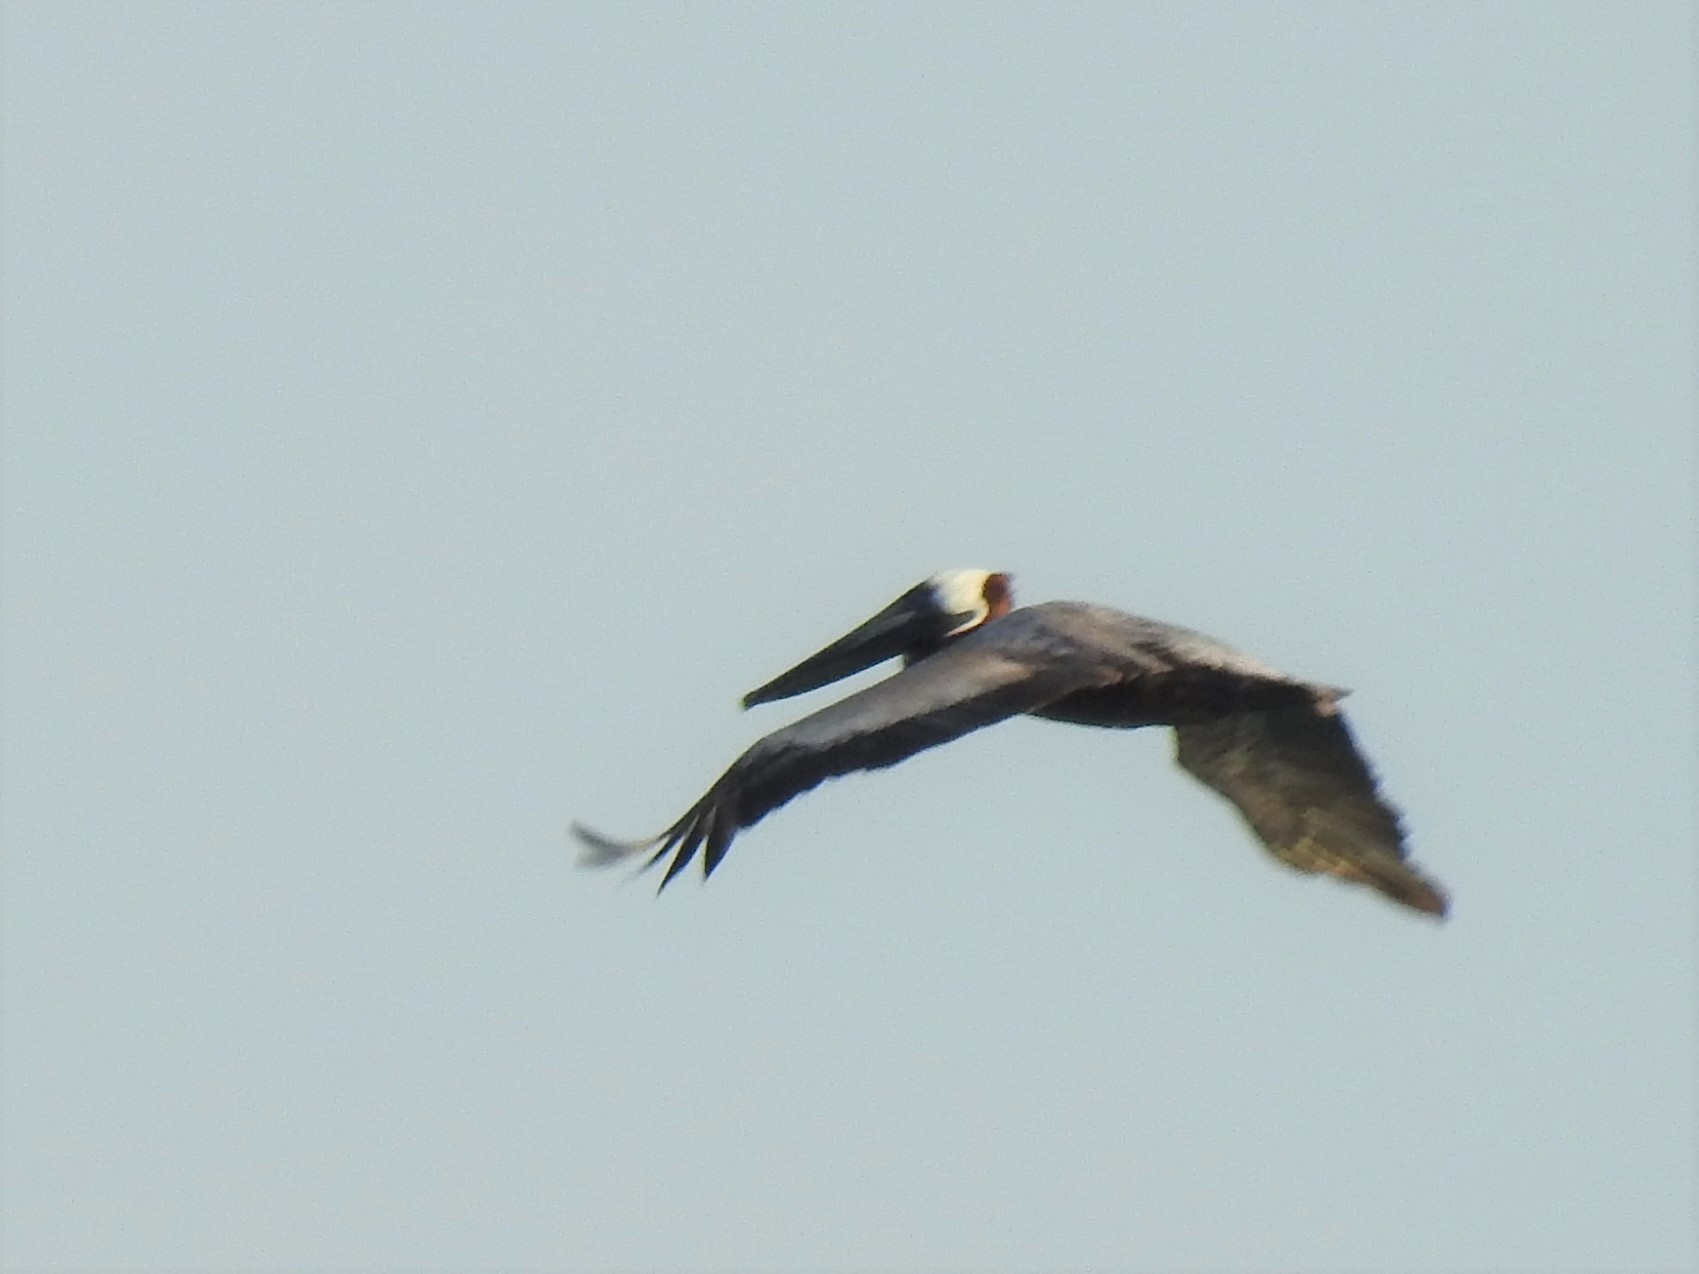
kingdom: Animalia
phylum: Chordata
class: Aves
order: Pelecaniformes
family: Pelecanidae
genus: Pelecanus
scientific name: Pelecanus occidentalis
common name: Brown pelican
